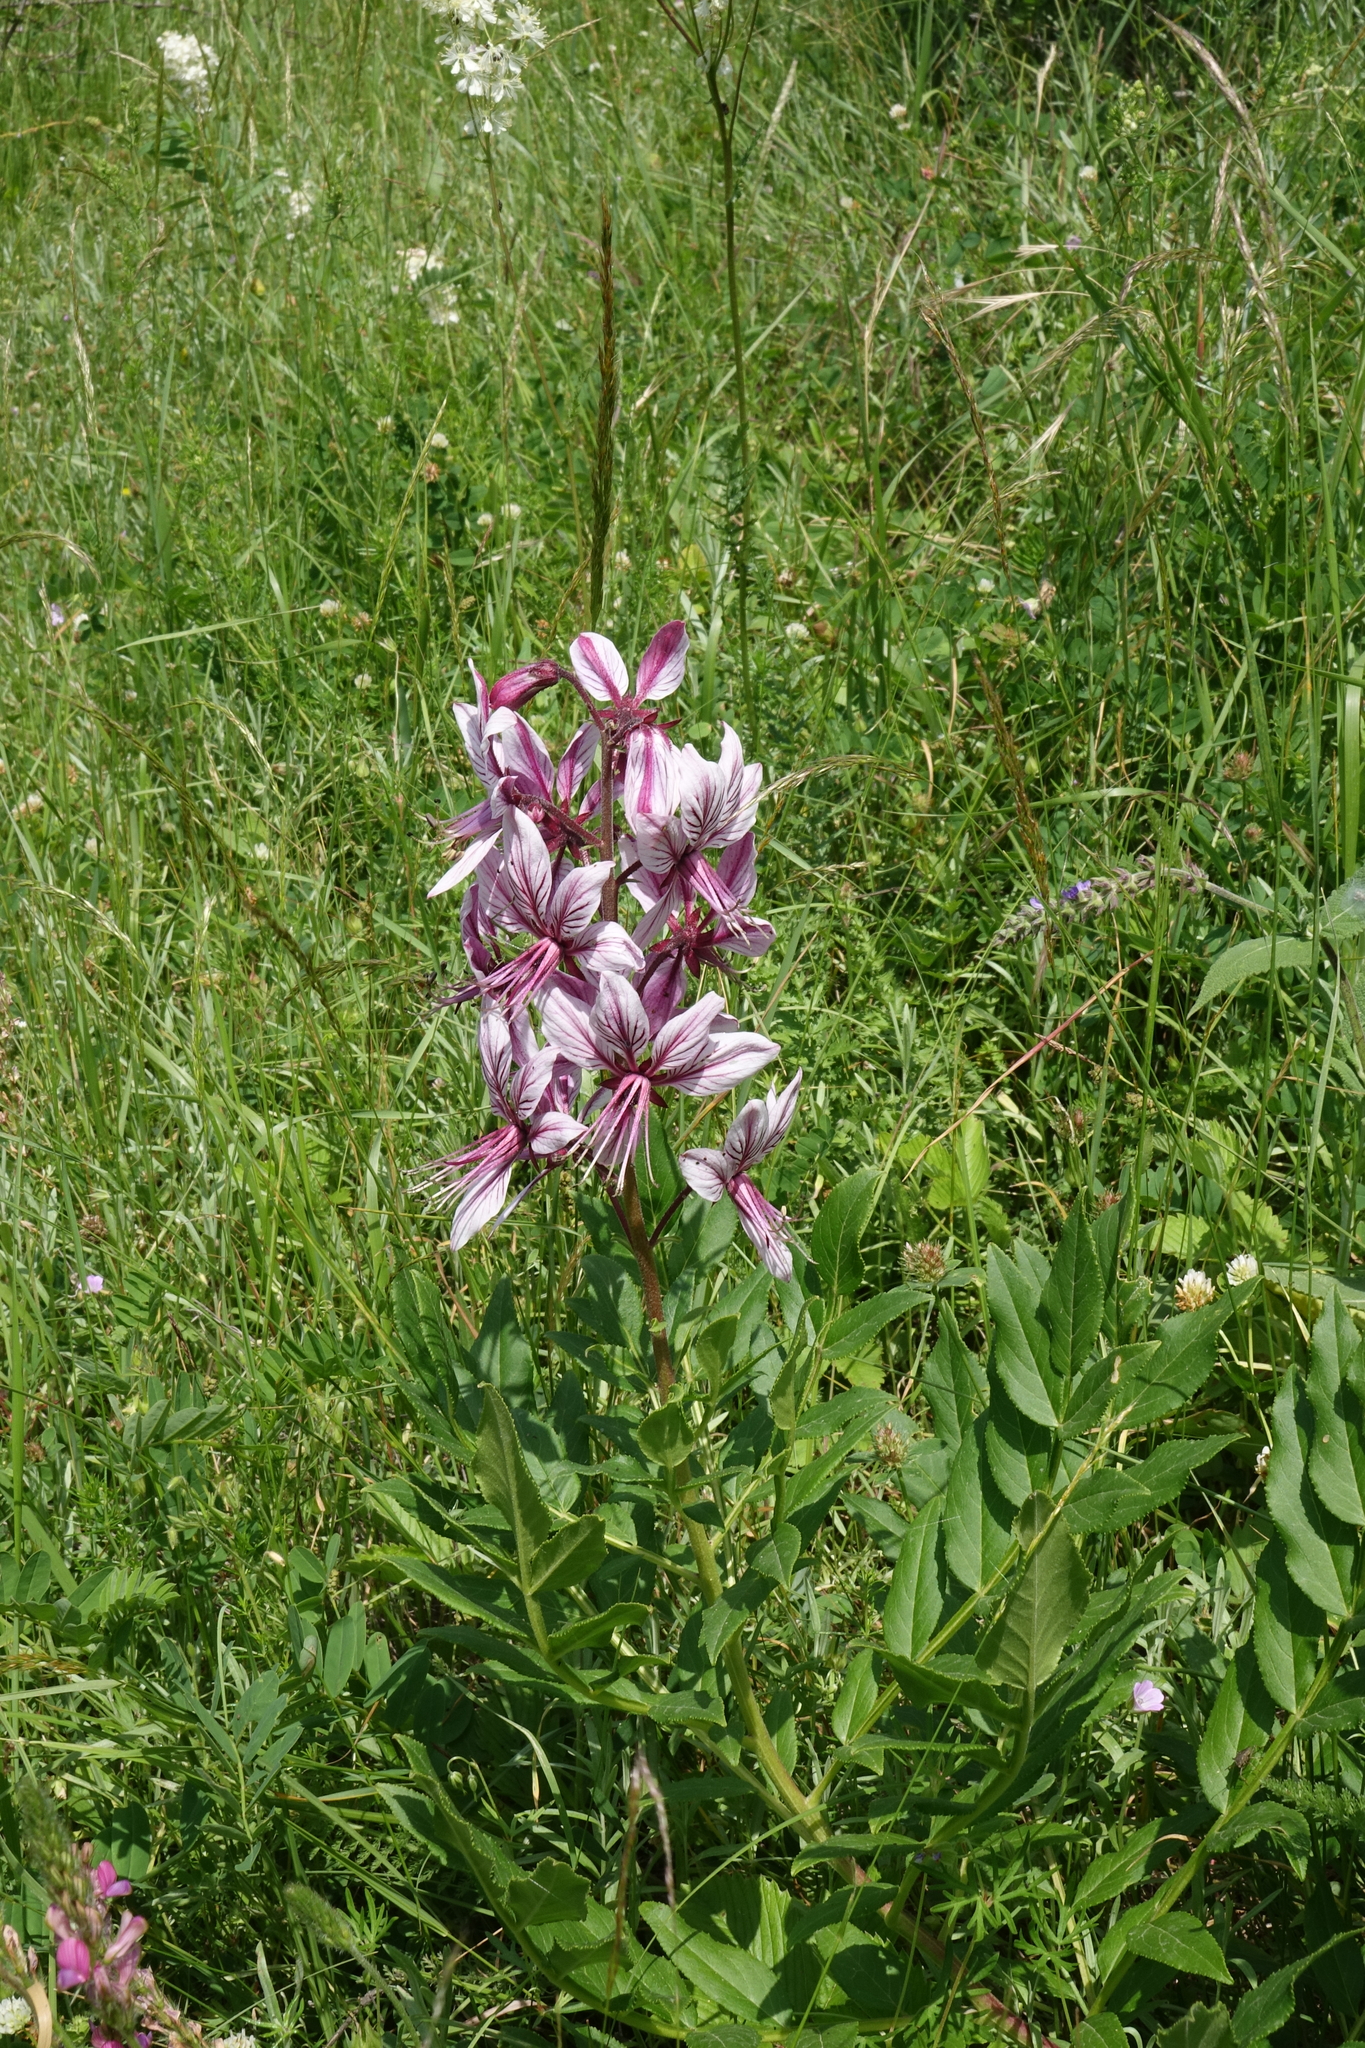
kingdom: Plantae
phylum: Tracheophyta
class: Magnoliopsida
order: Sapindales
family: Rutaceae
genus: Dictamnus
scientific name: Dictamnus albus
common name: Gasplant
